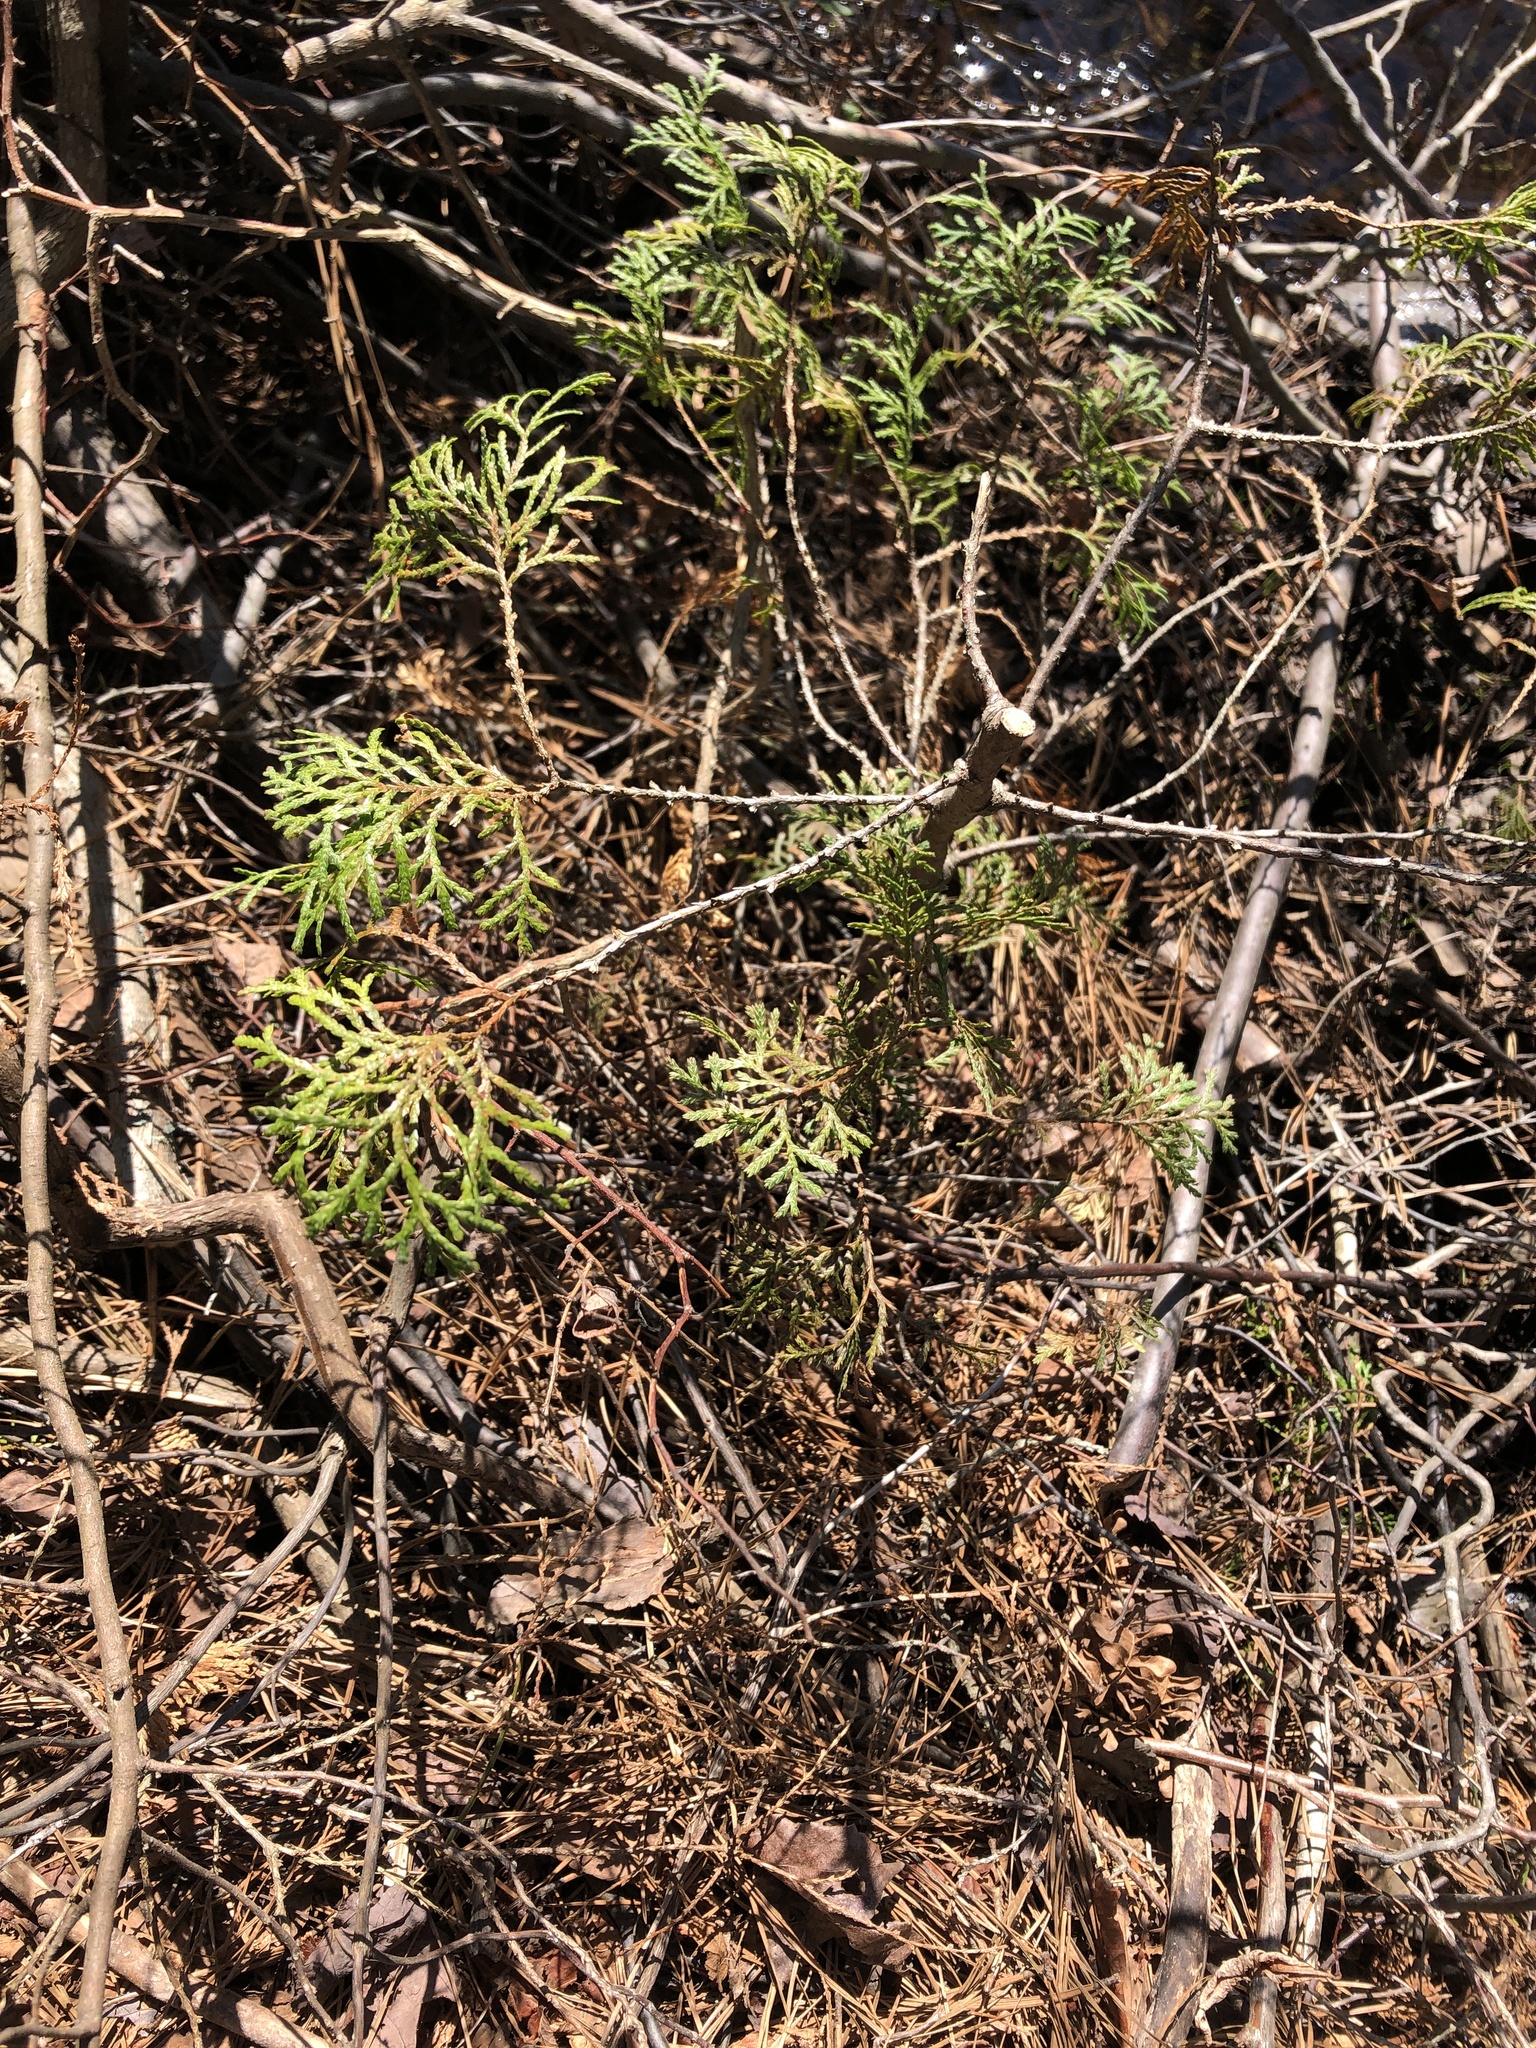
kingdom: Plantae
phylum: Tracheophyta
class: Pinopsida
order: Pinales
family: Cupressaceae
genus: Chamaecyparis
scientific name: Chamaecyparis thyoides
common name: Atlantic white cedar
